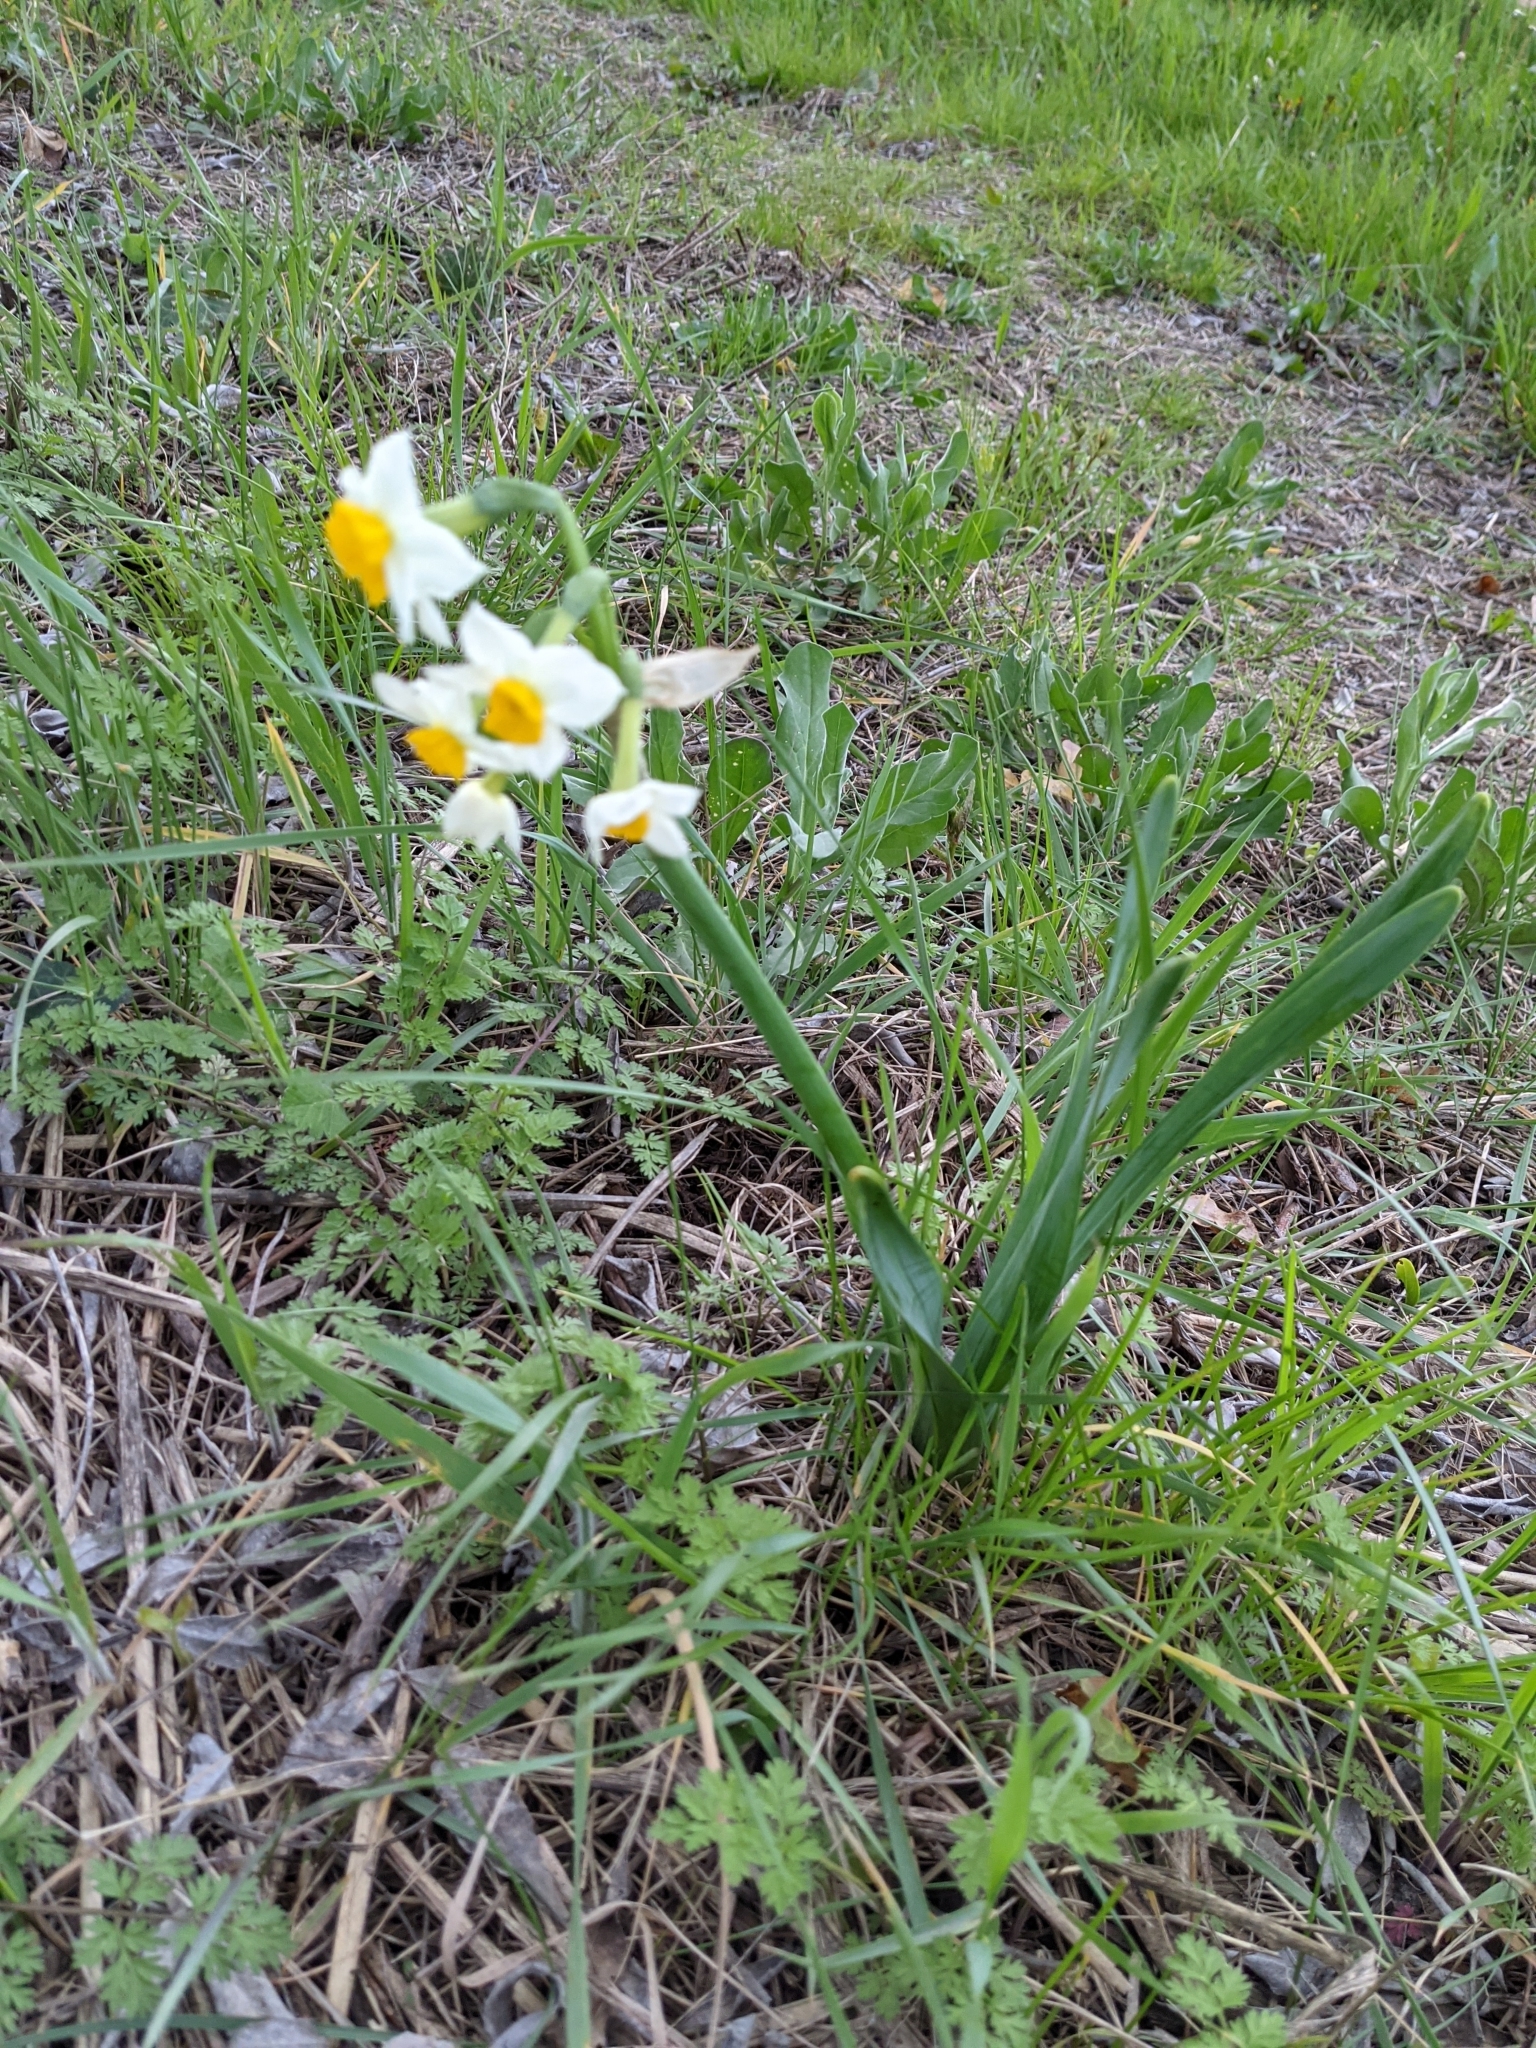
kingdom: Plantae
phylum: Tracheophyta
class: Liliopsida
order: Asparagales
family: Amaryllidaceae
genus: Narcissus
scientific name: Narcissus tazetta
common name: Bunch-flowered daffodil
